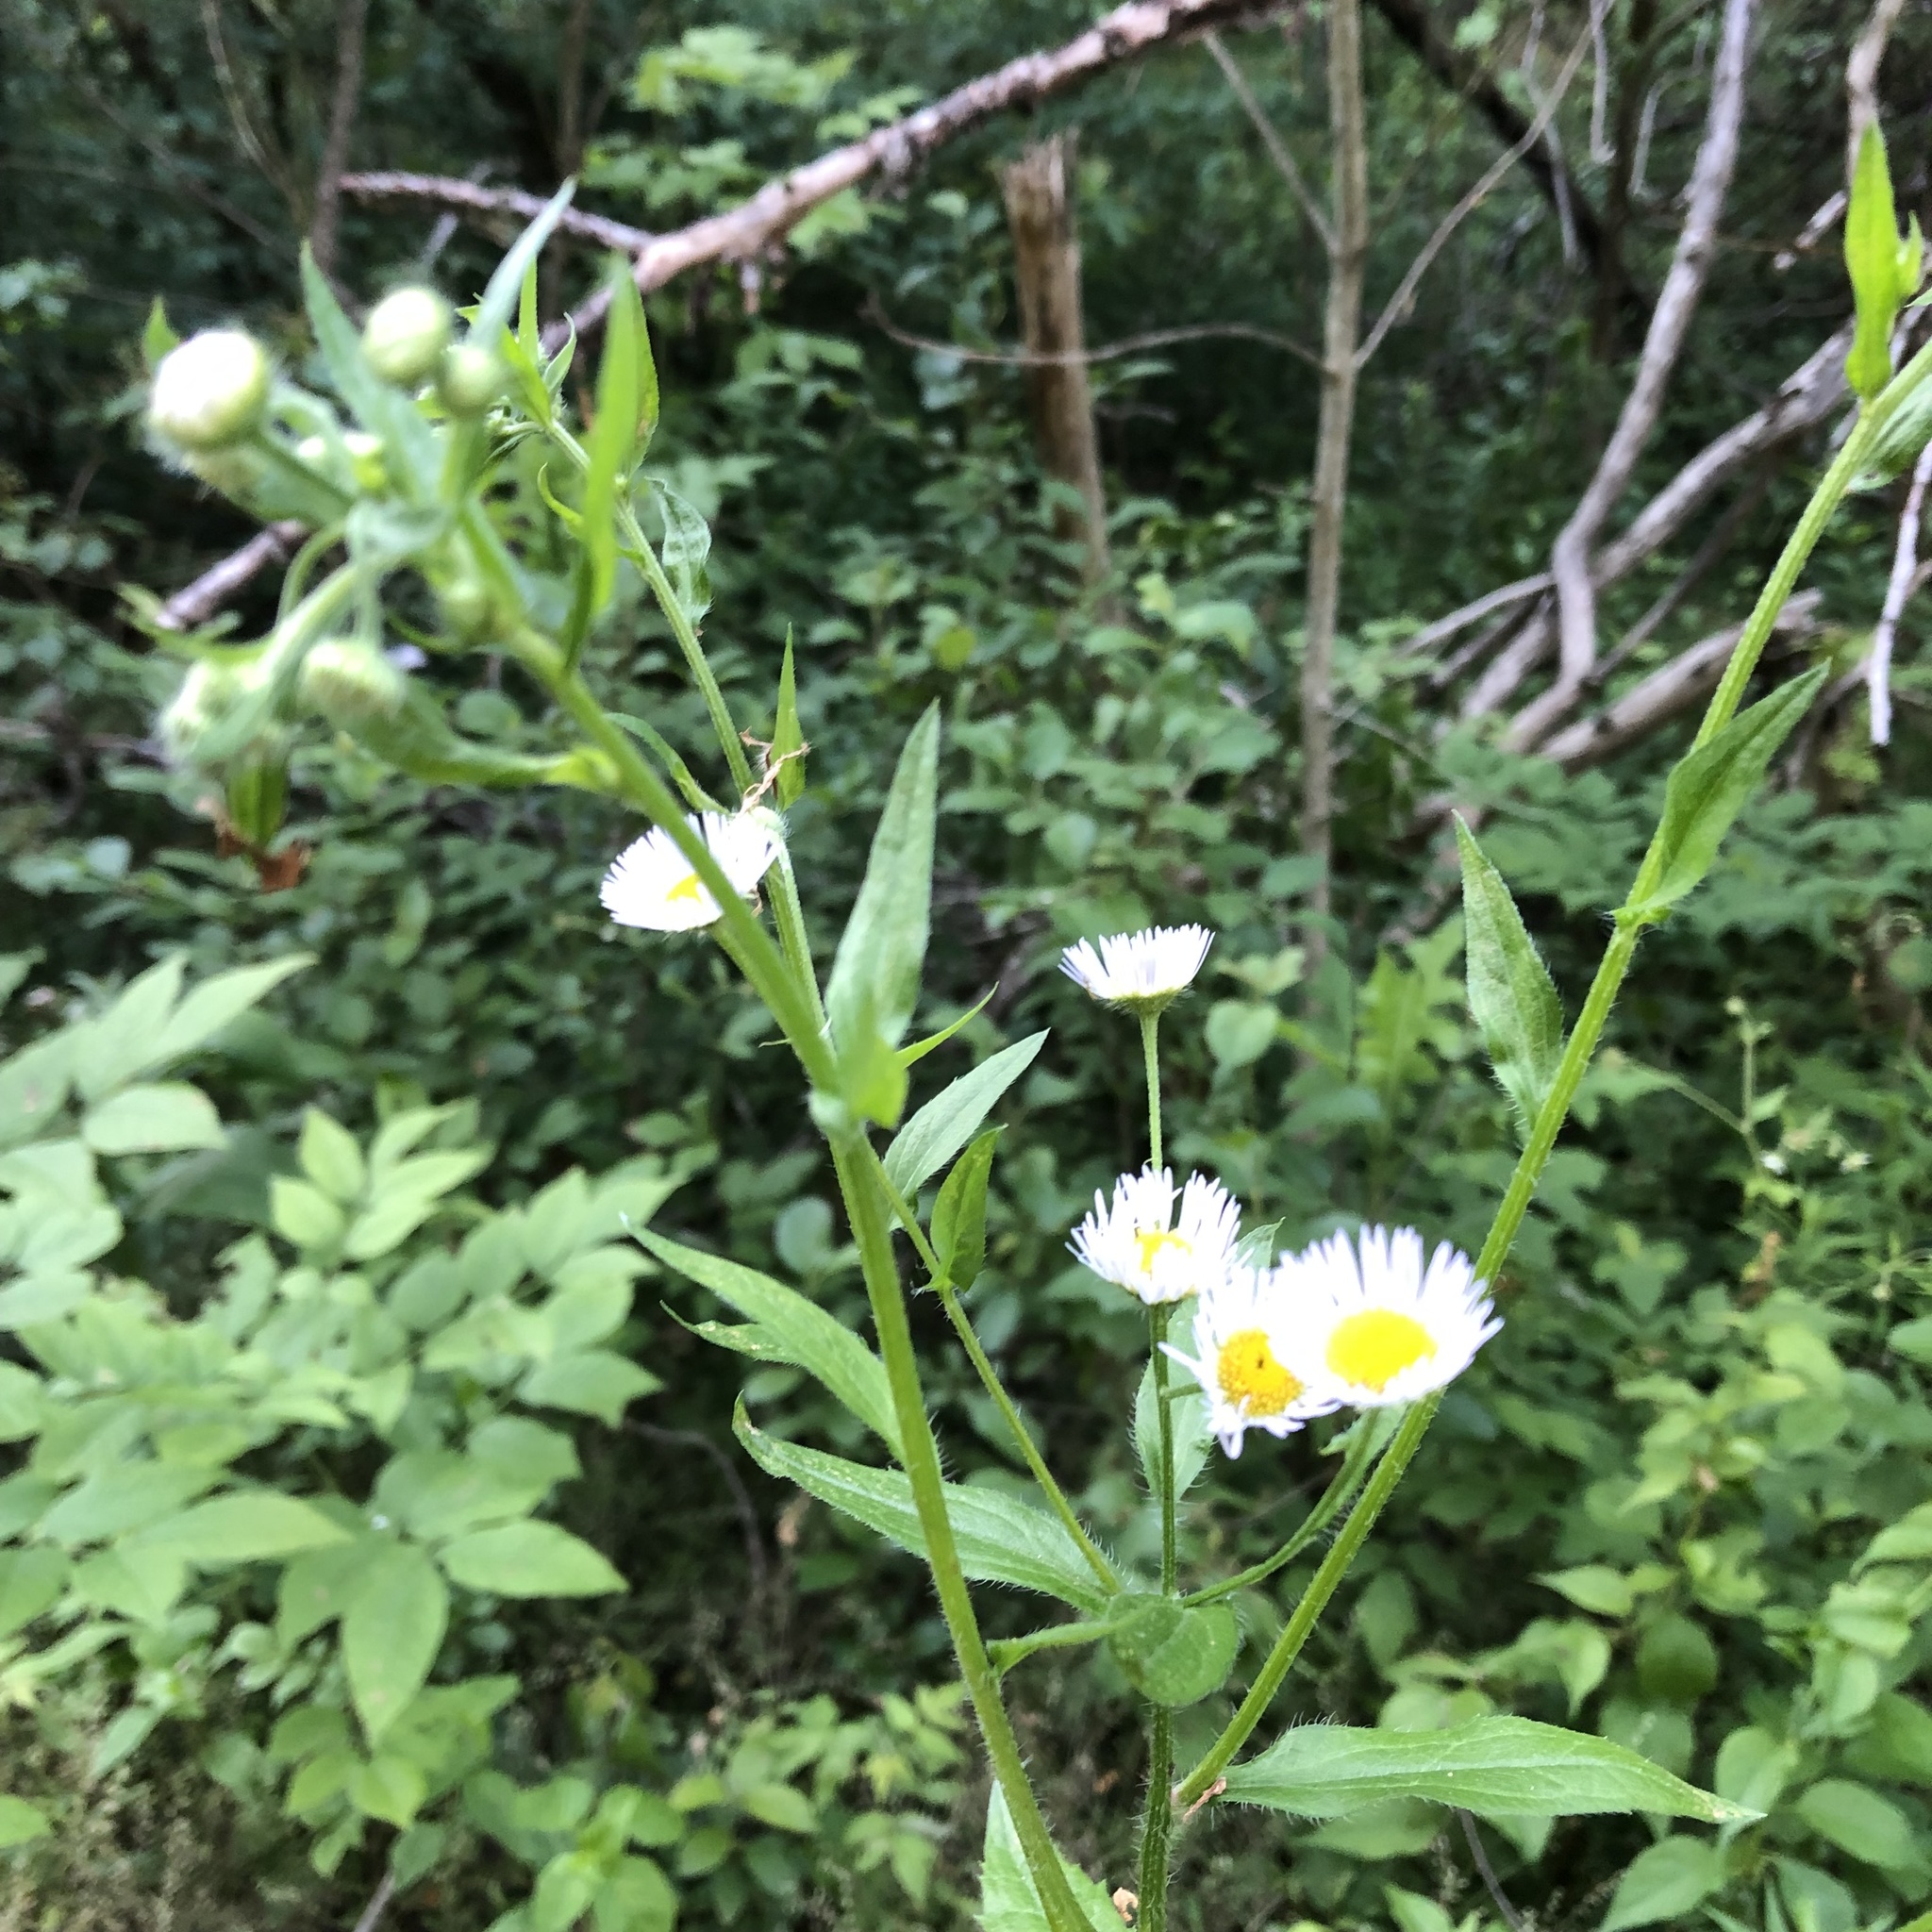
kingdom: Plantae
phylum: Tracheophyta
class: Magnoliopsida
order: Asterales
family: Asteraceae
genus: Erigeron
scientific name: Erigeron annuus
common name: Tall fleabane
